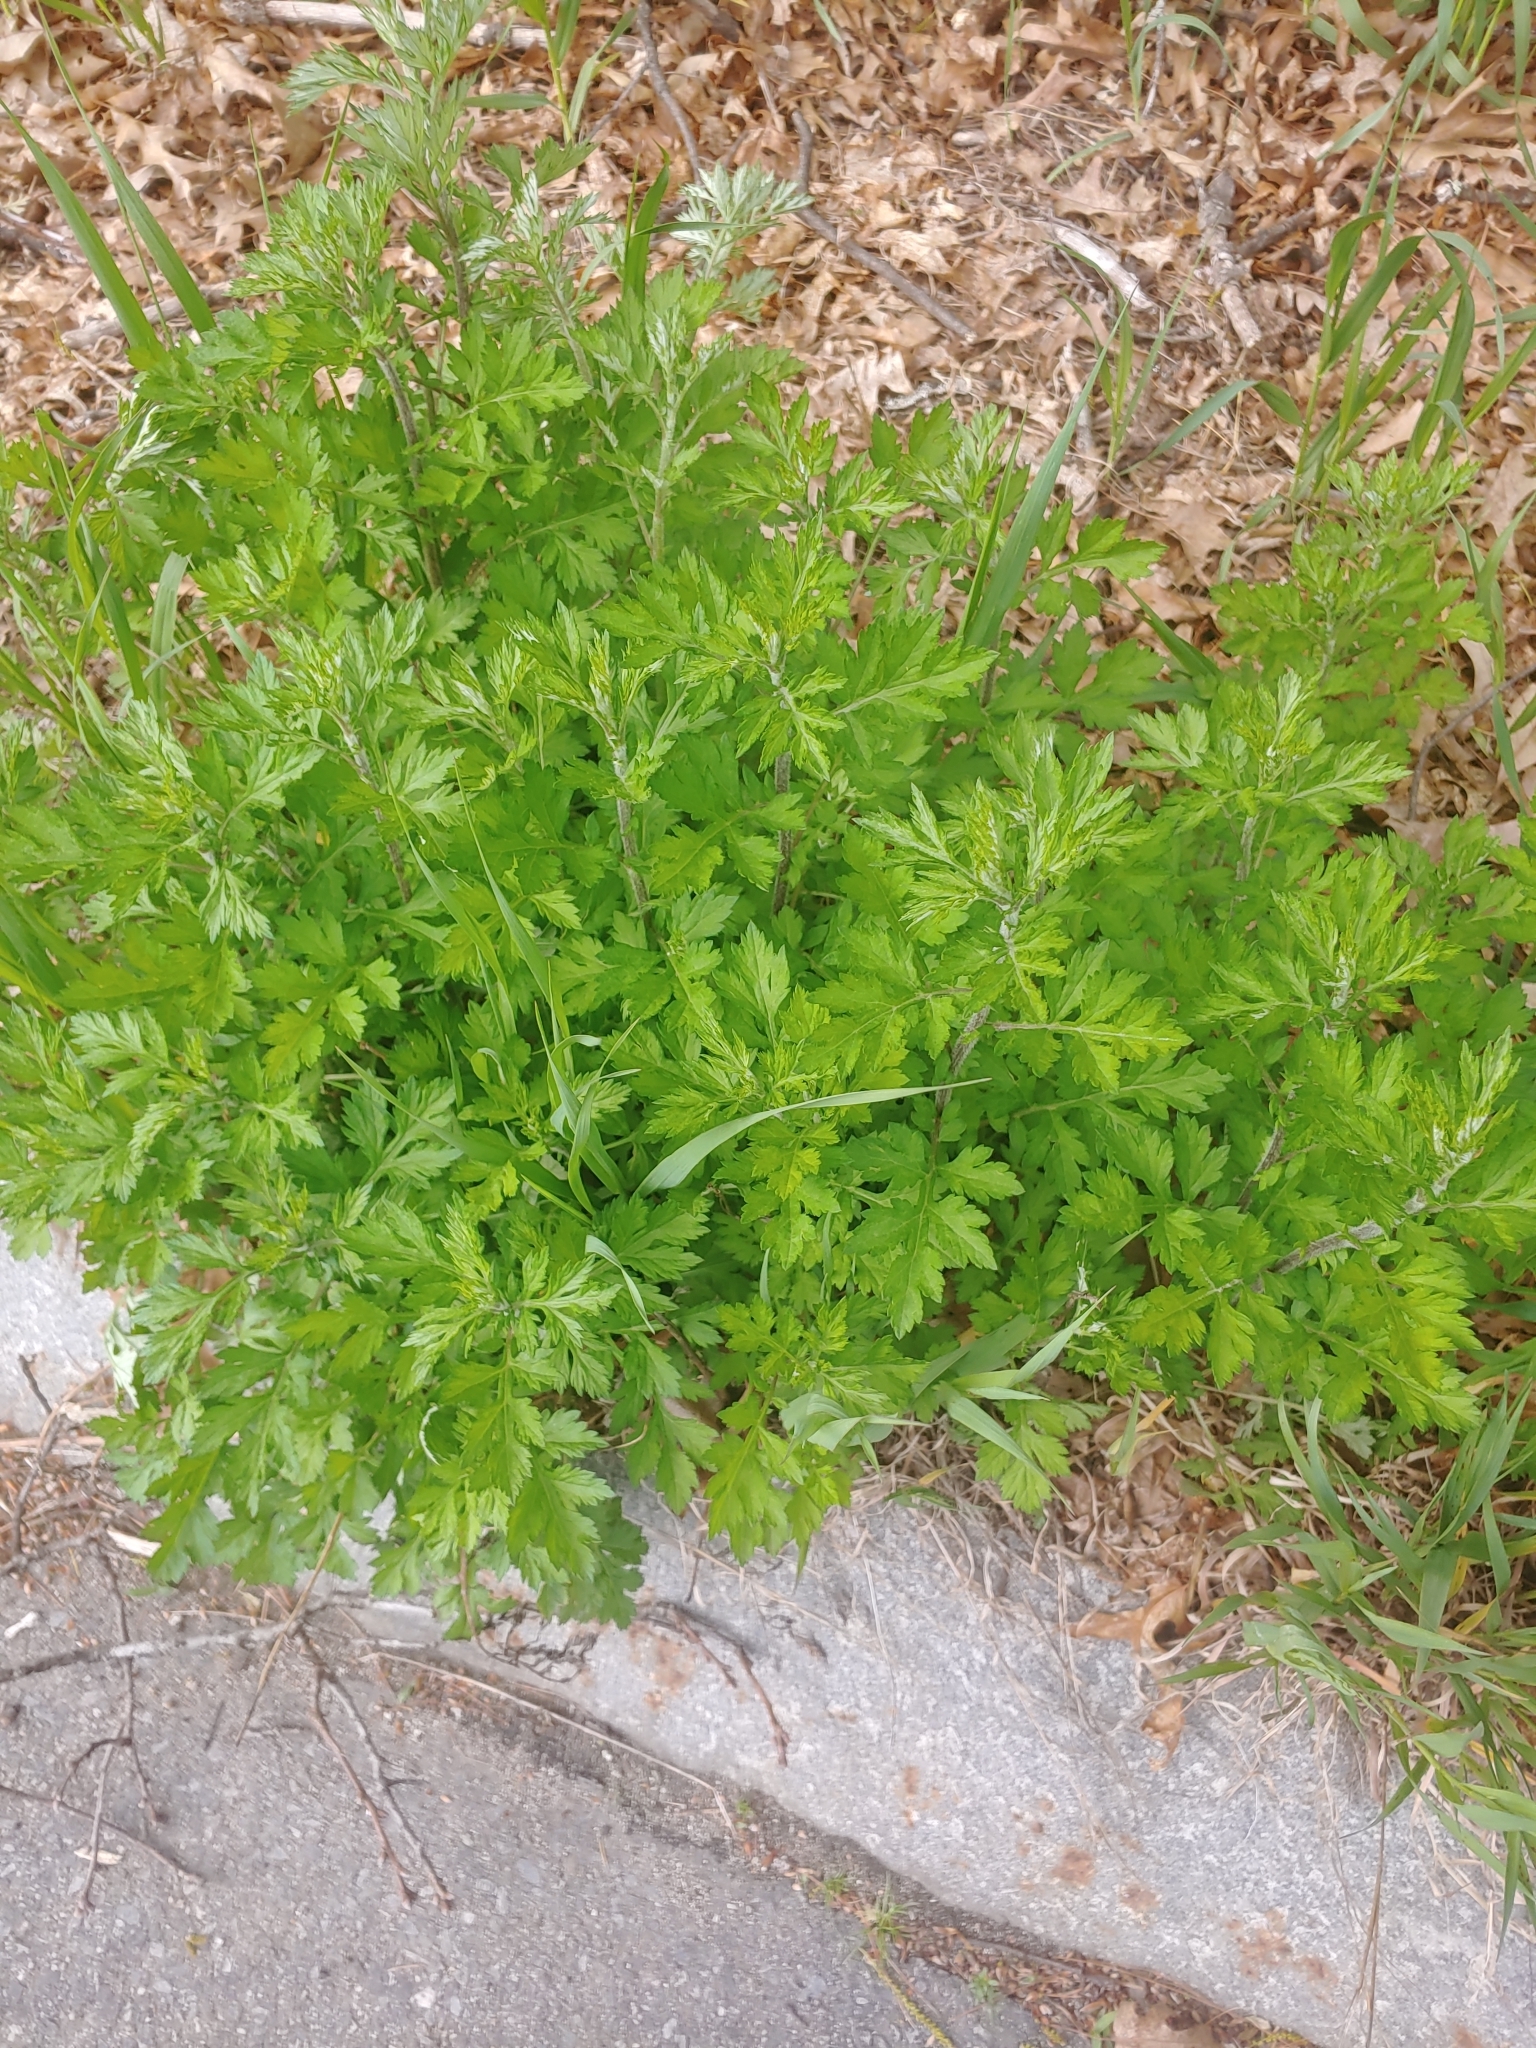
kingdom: Plantae
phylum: Tracheophyta
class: Magnoliopsida
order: Asterales
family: Asteraceae
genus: Artemisia
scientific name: Artemisia vulgaris
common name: Mugwort
